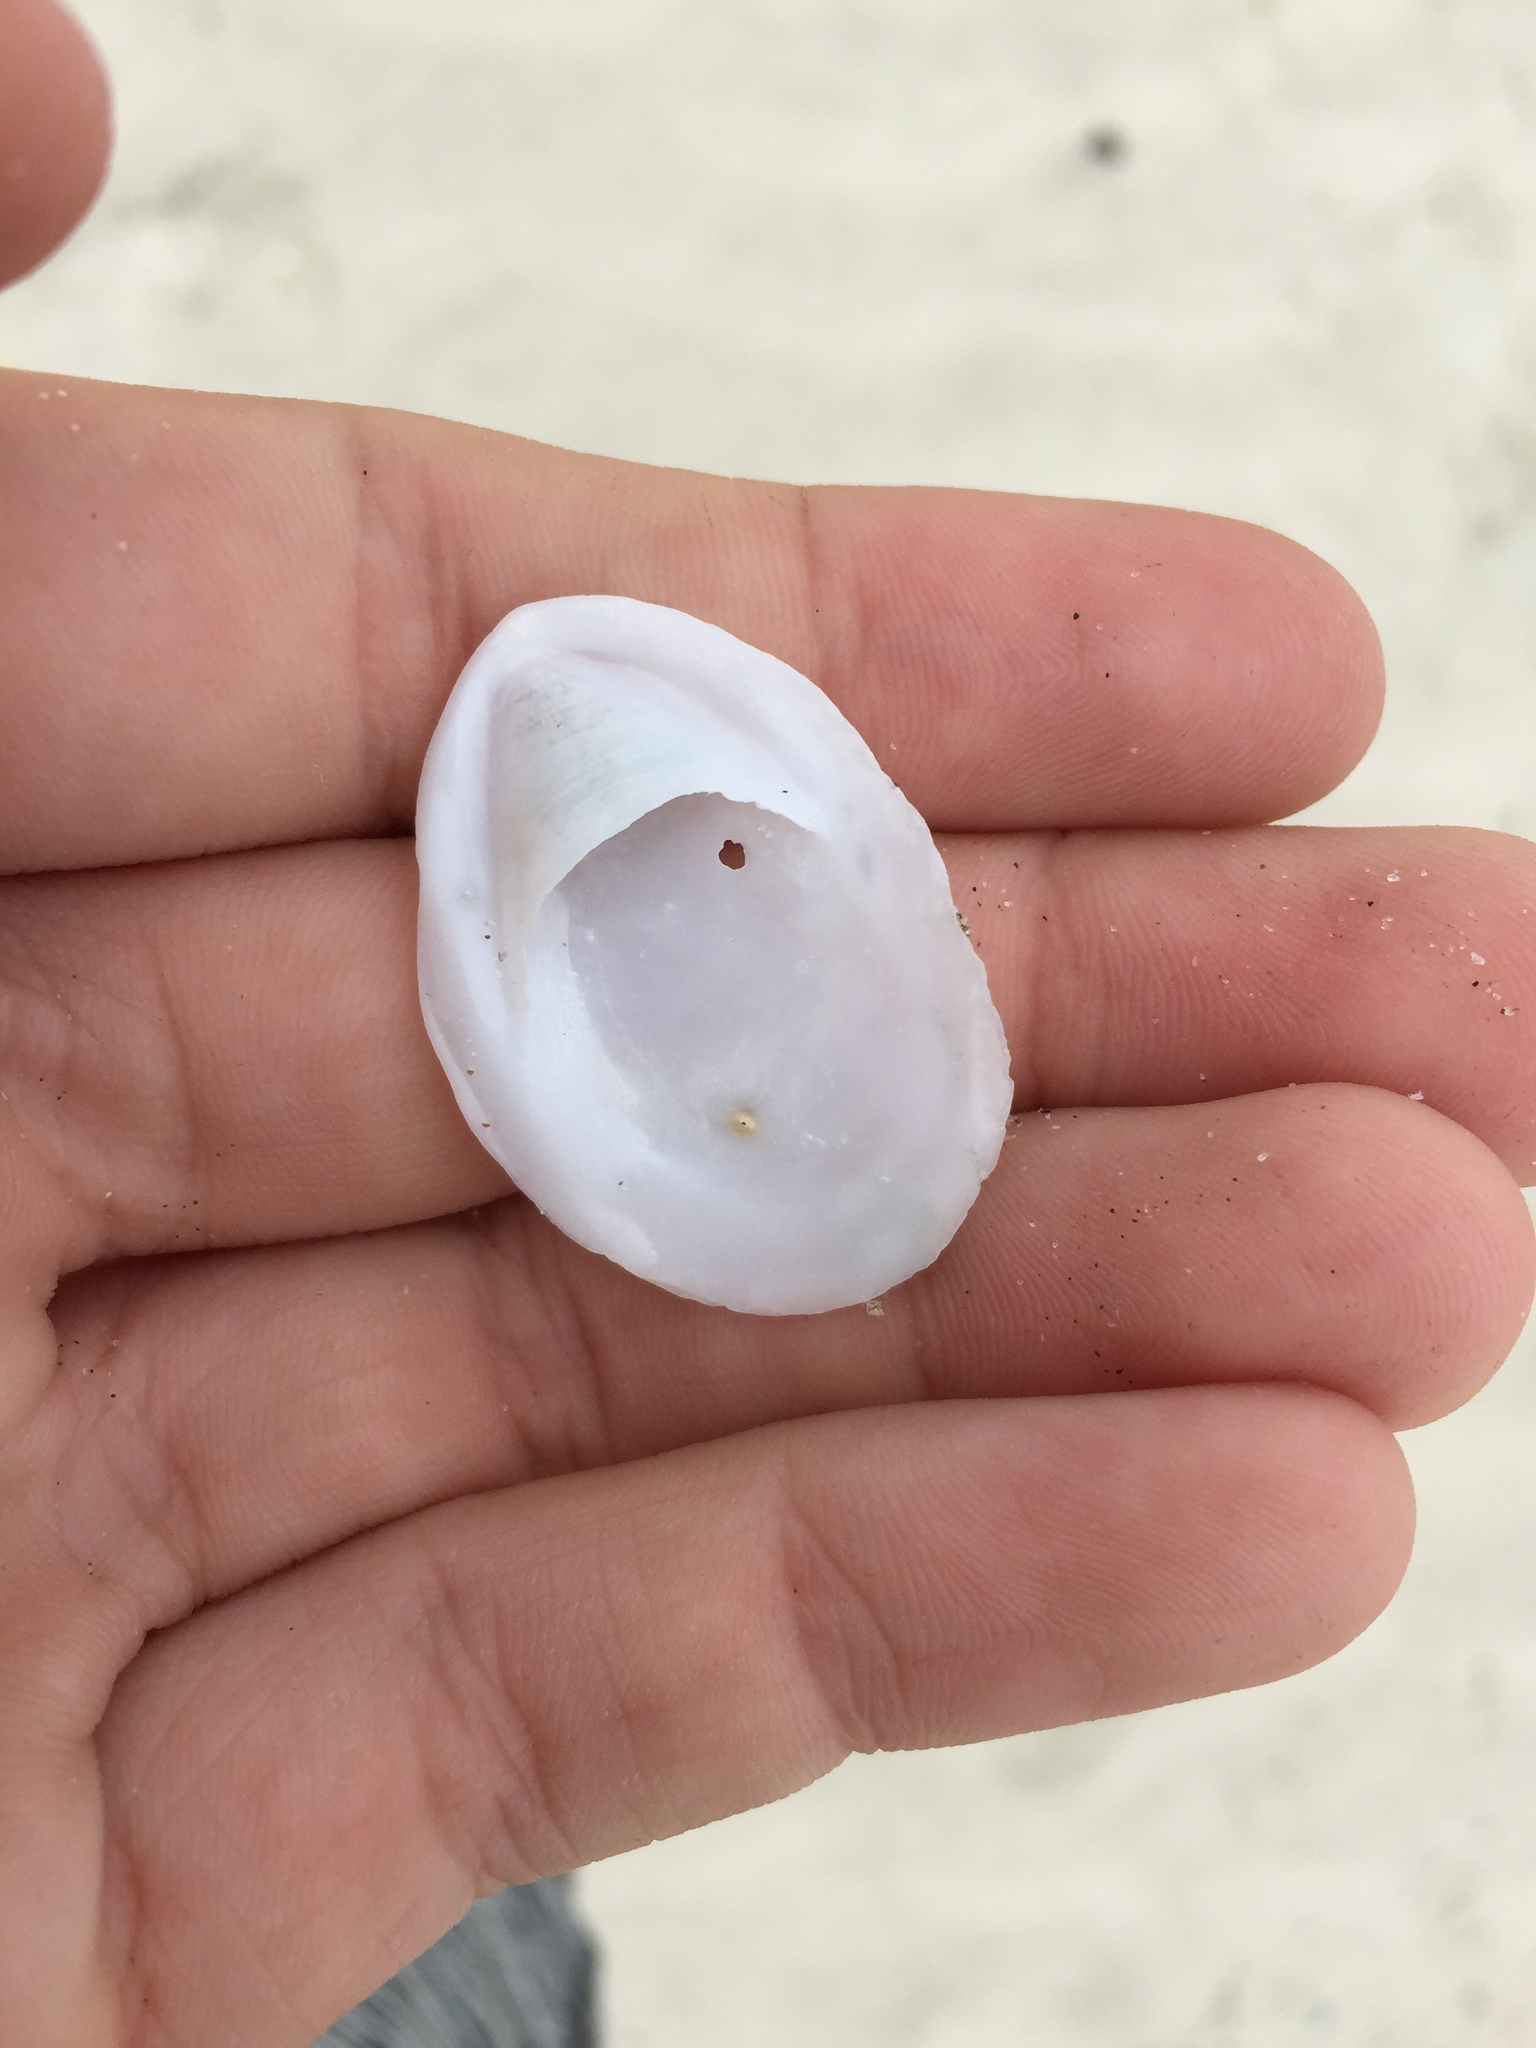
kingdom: Animalia
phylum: Mollusca
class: Gastropoda
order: Littorinimorpha
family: Calyptraeidae
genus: Maoricrypta
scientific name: Maoricrypta sodalis
